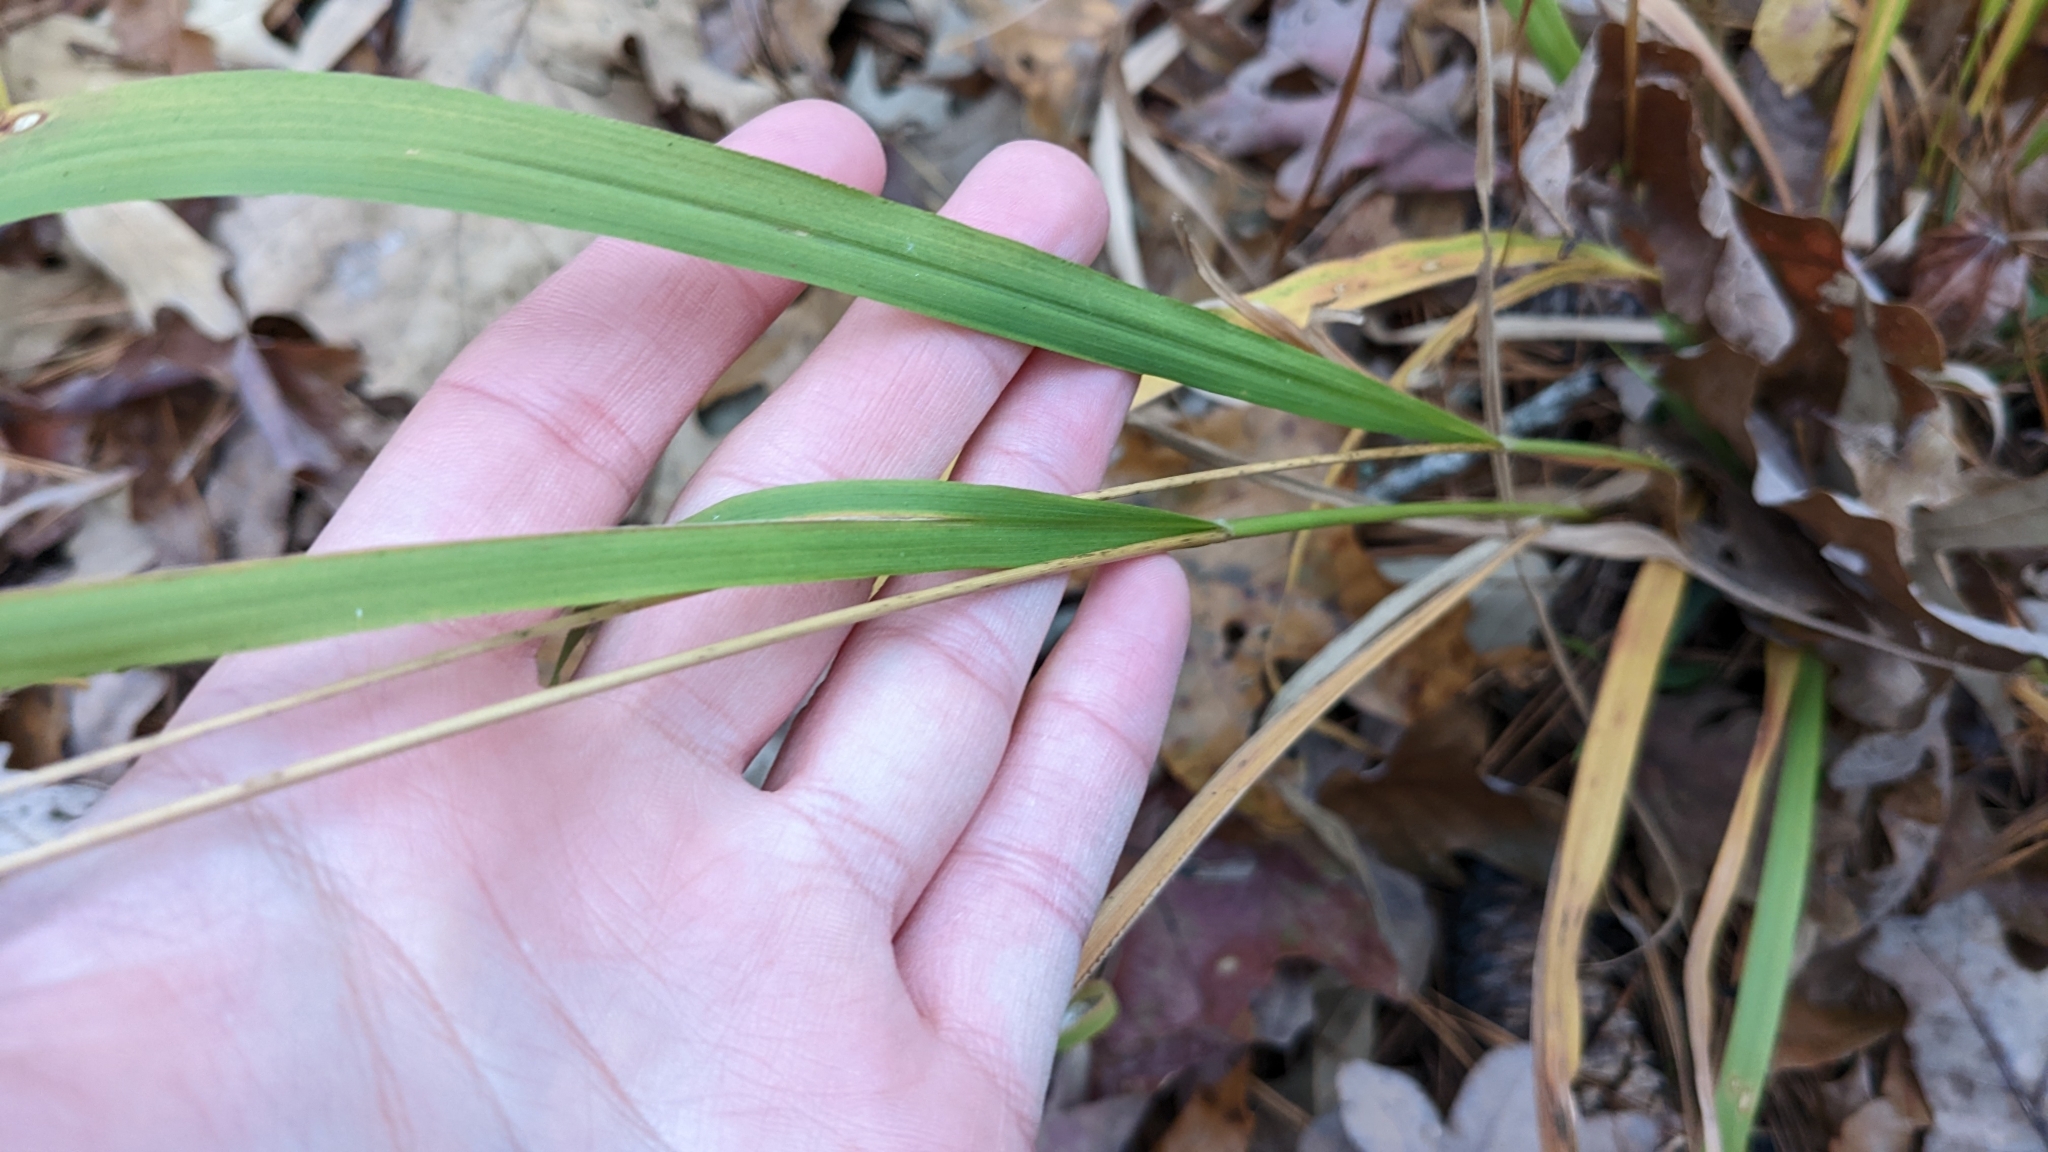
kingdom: Plantae
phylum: Tracheophyta
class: Liliopsida
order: Poales
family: Poaceae
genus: Chasmanthium
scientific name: Chasmanthium laxum
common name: Slender chasmanthium
